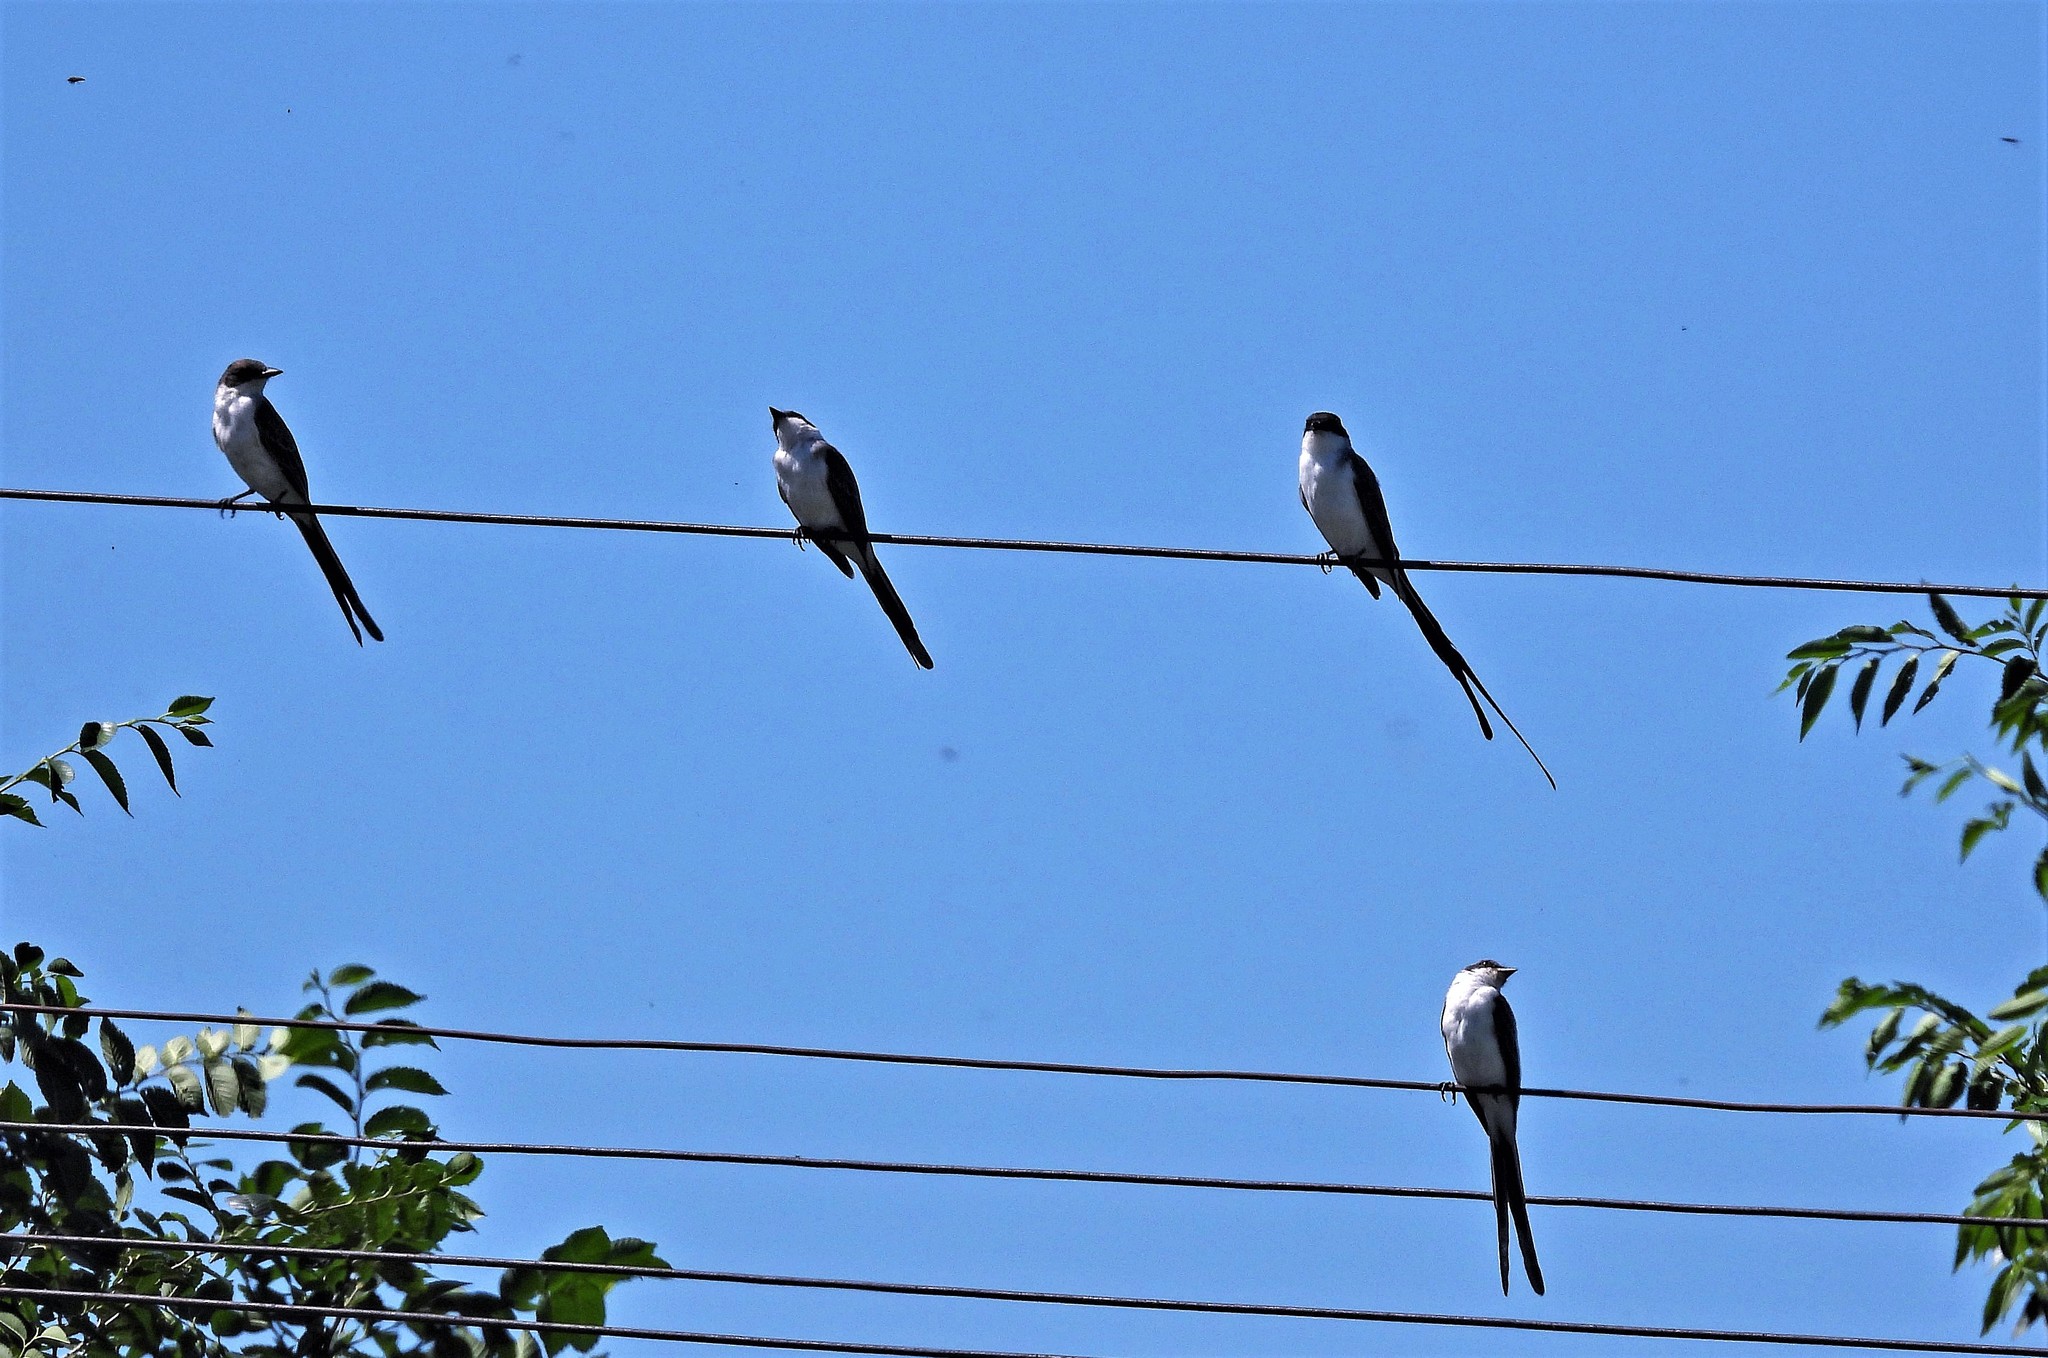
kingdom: Animalia
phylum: Chordata
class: Aves
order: Passeriformes
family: Tyrannidae
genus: Tyrannus
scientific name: Tyrannus savana
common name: Fork-tailed flycatcher
